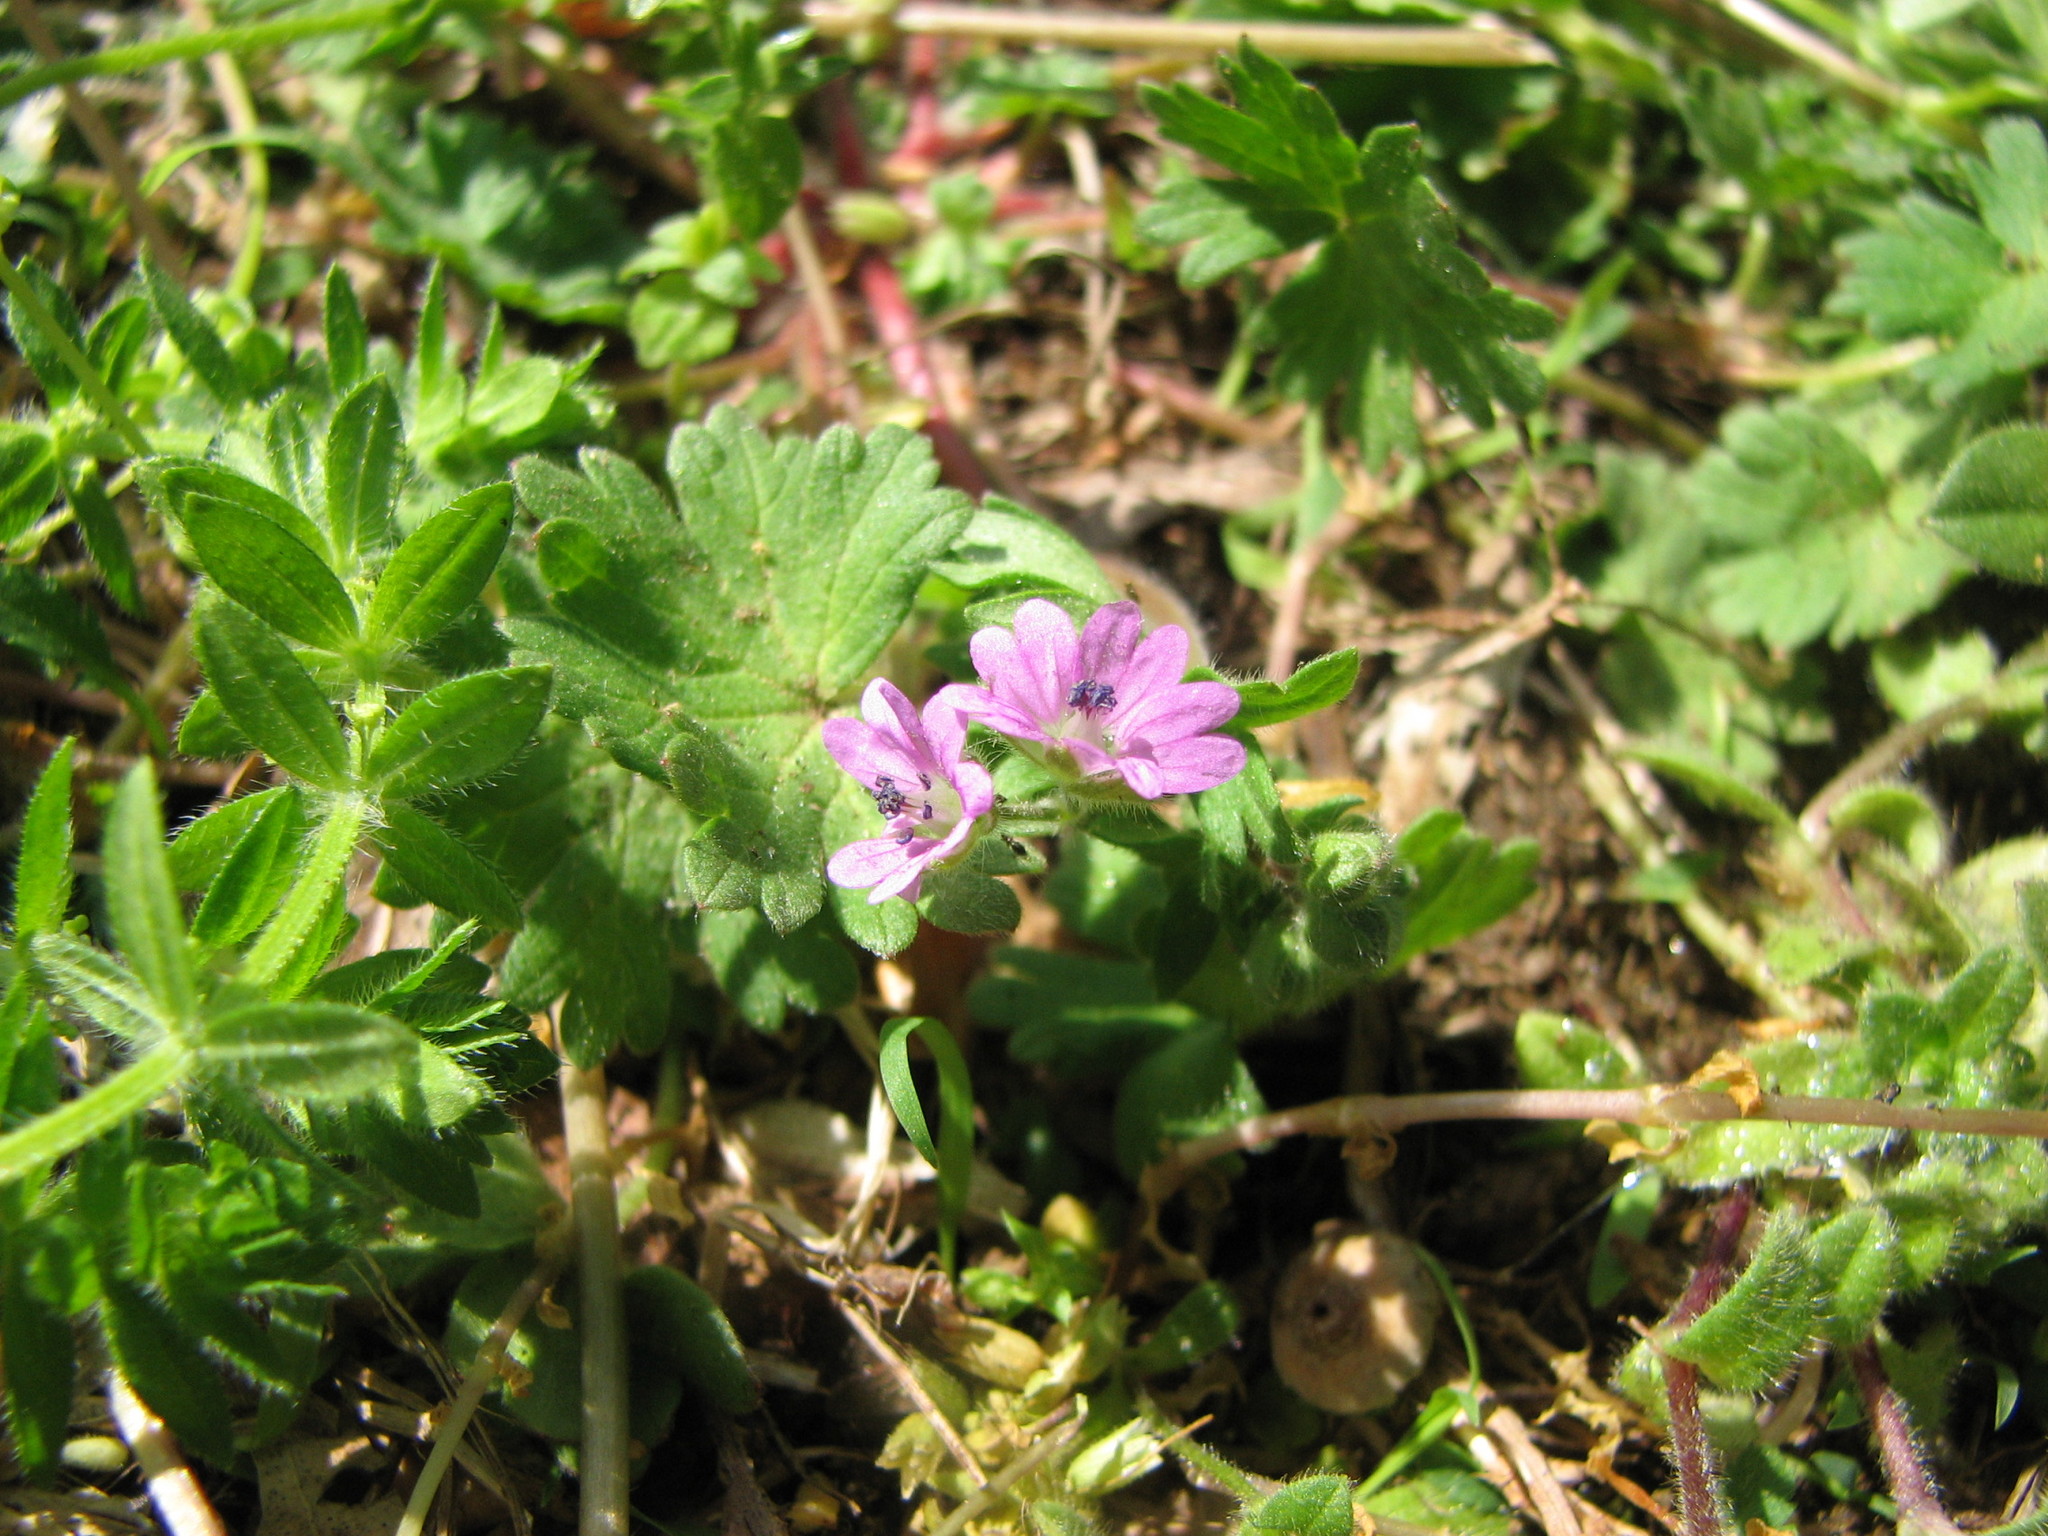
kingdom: Plantae
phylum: Tracheophyta
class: Magnoliopsida
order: Geraniales
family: Geraniaceae
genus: Geranium
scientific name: Geranium molle
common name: Dove's-foot crane's-bill
